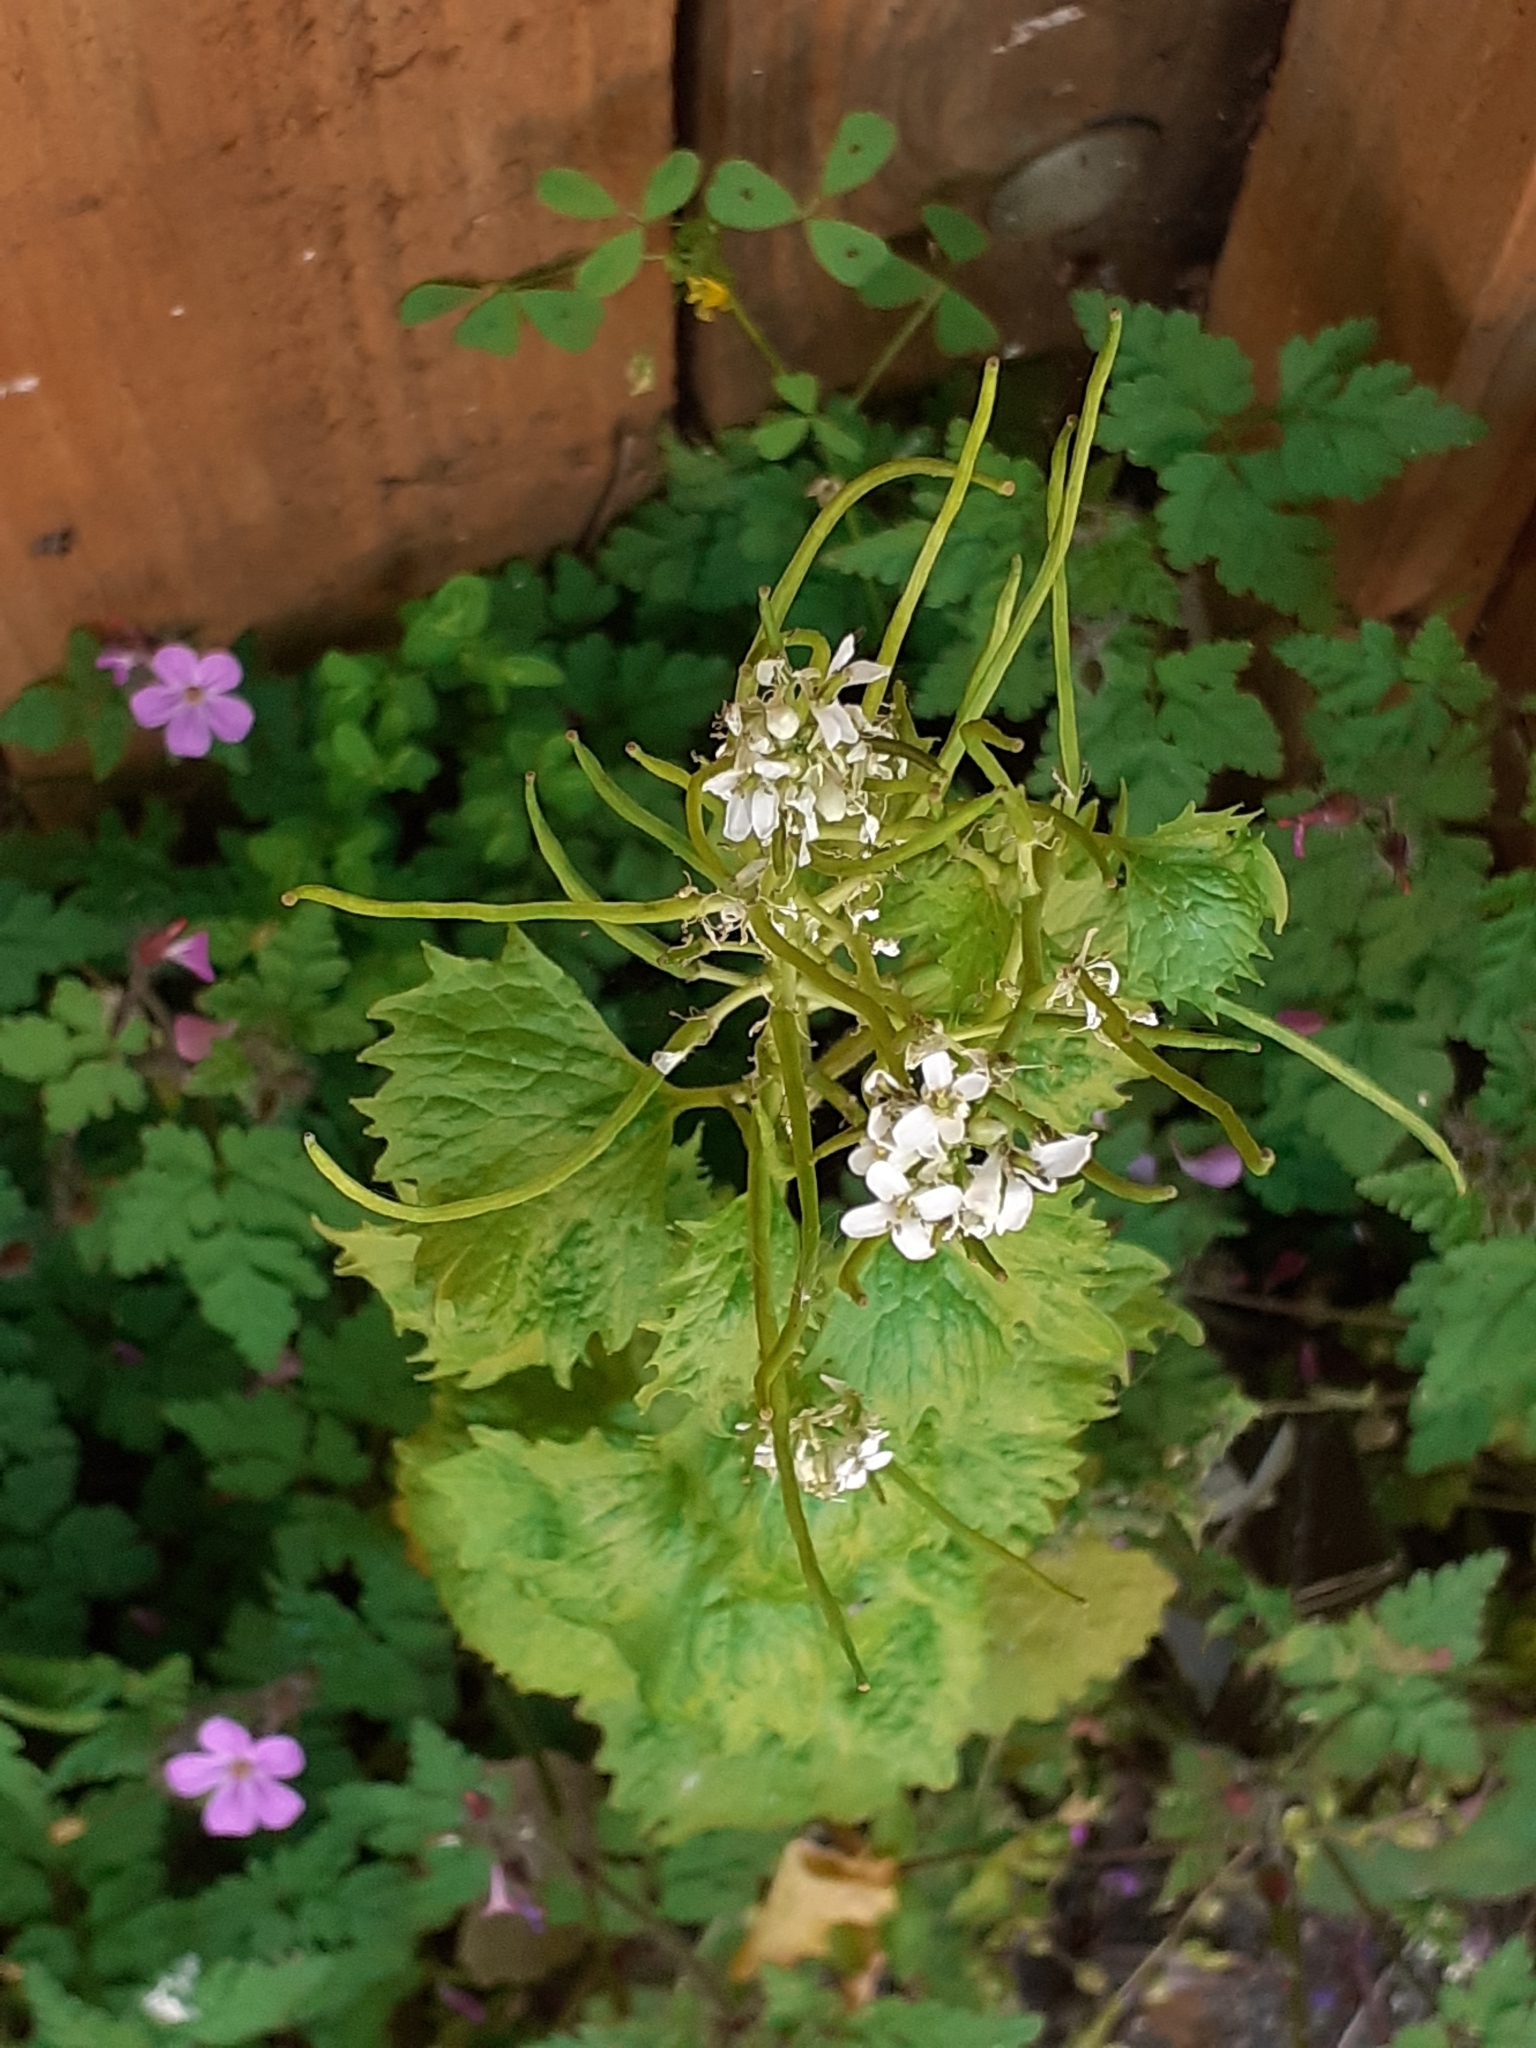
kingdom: Plantae
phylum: Tracheophyta
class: Magnoliopsida
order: Brassicales
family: Brassicaceae
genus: Alliaria
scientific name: Alliaria petiolata
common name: Garlic mustard
